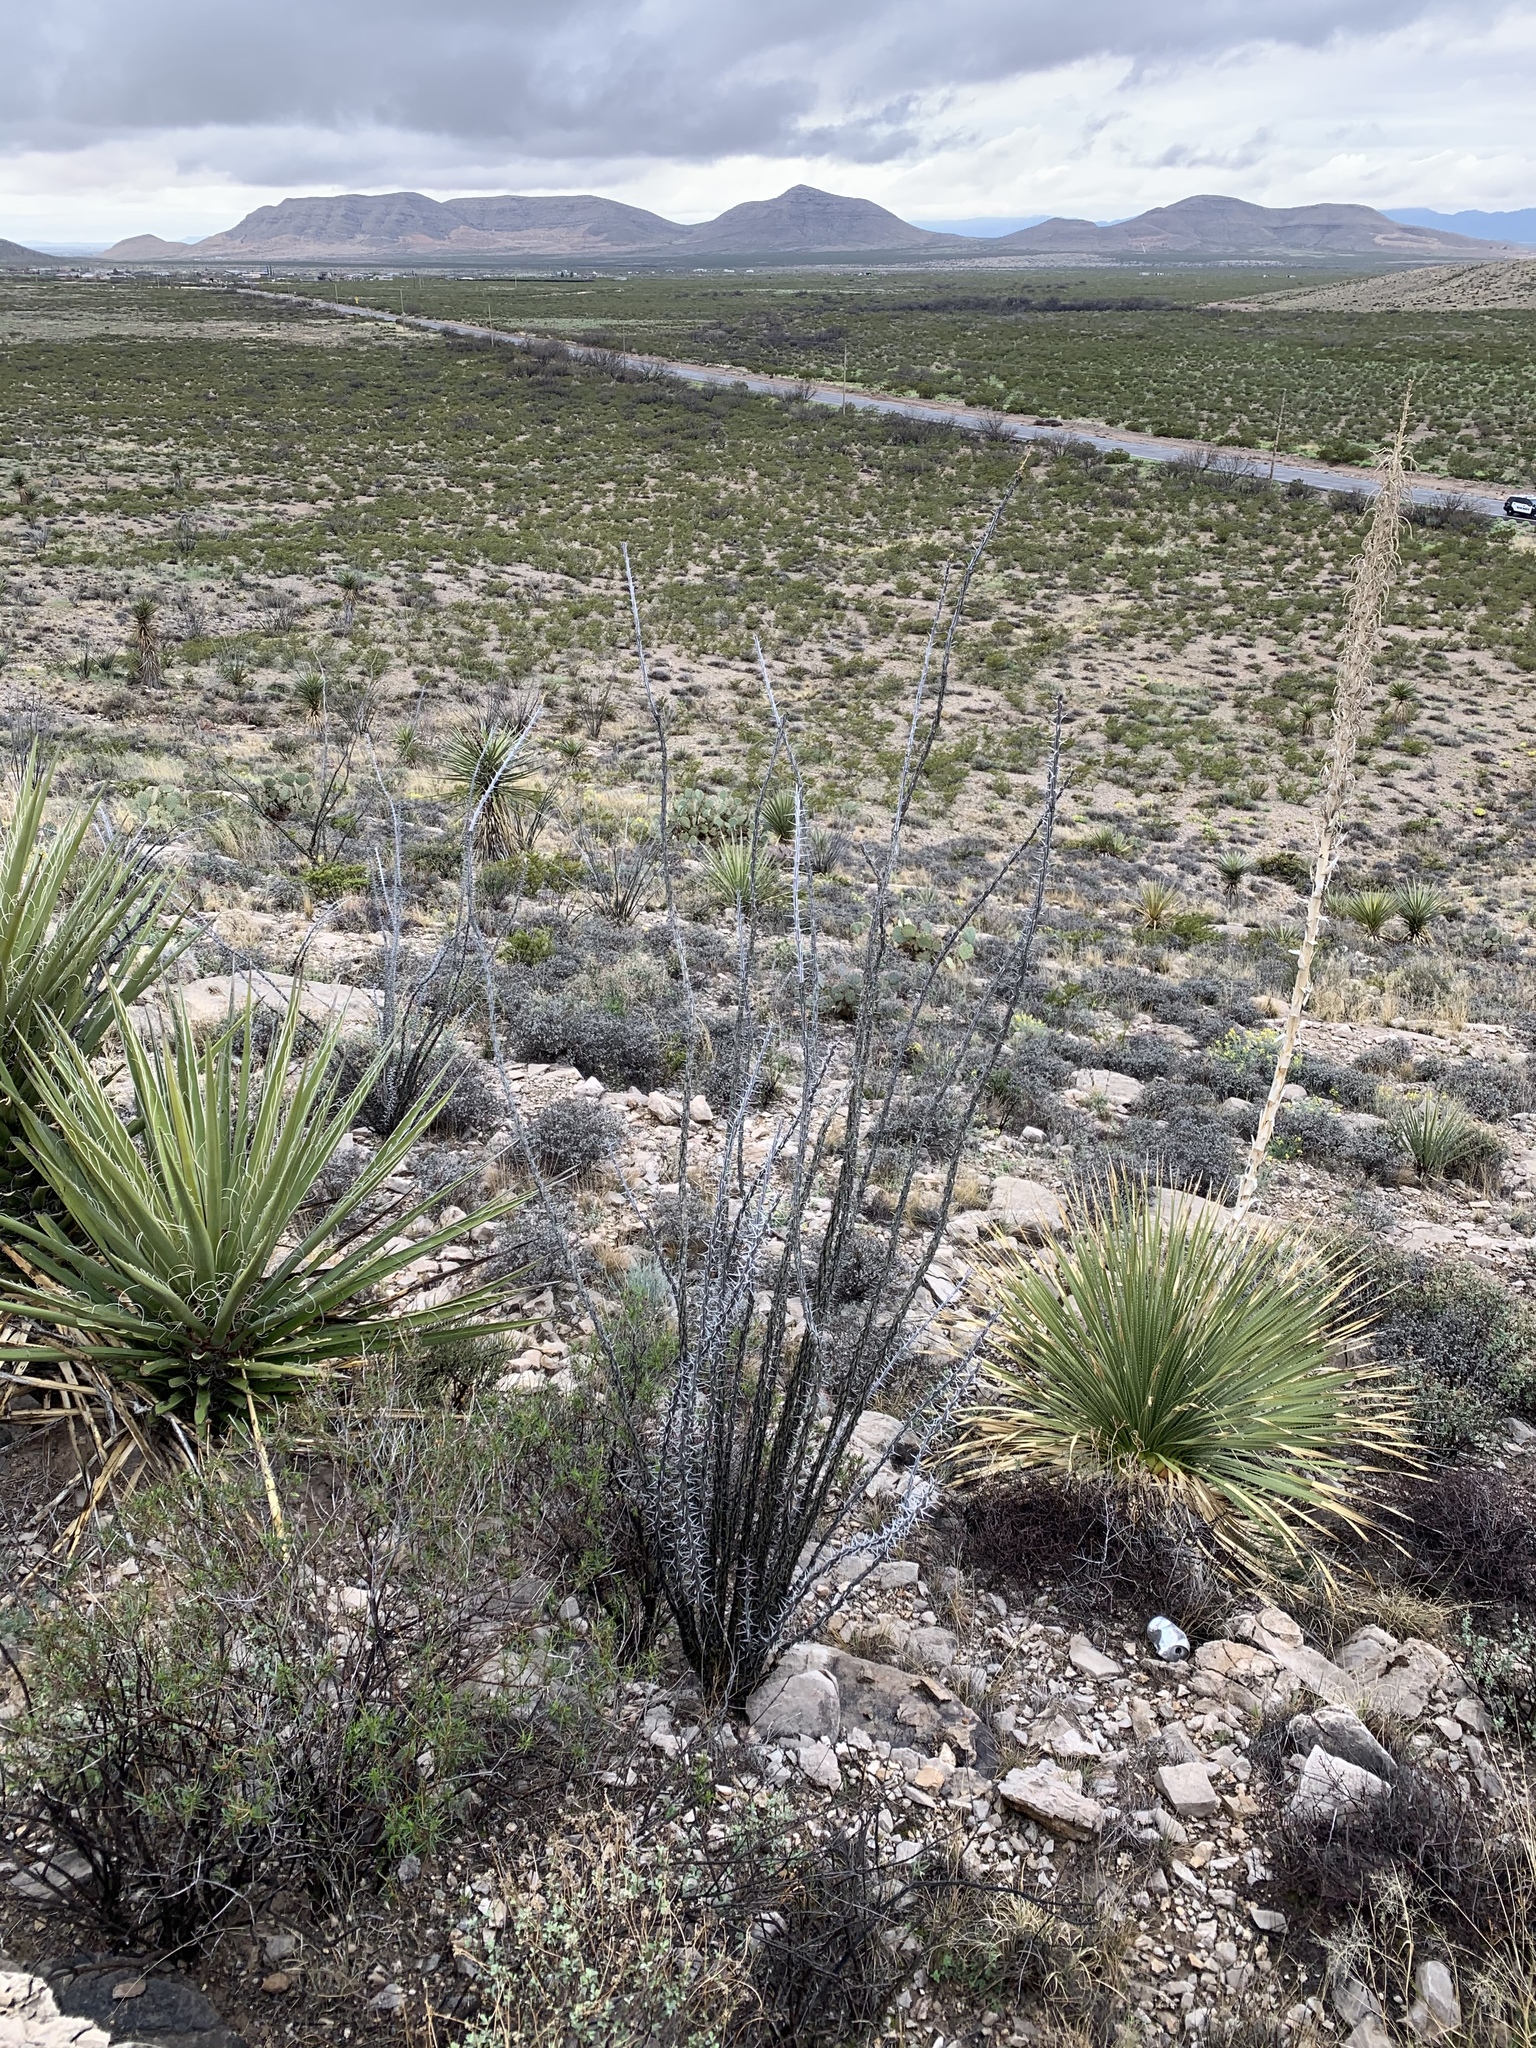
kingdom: Plantae
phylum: Tracheophyta
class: Magnoliopsida
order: Ericales
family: Fouquieriaceae
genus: Fouquieria
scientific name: Fouquieria splendens
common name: Vine-cactus
